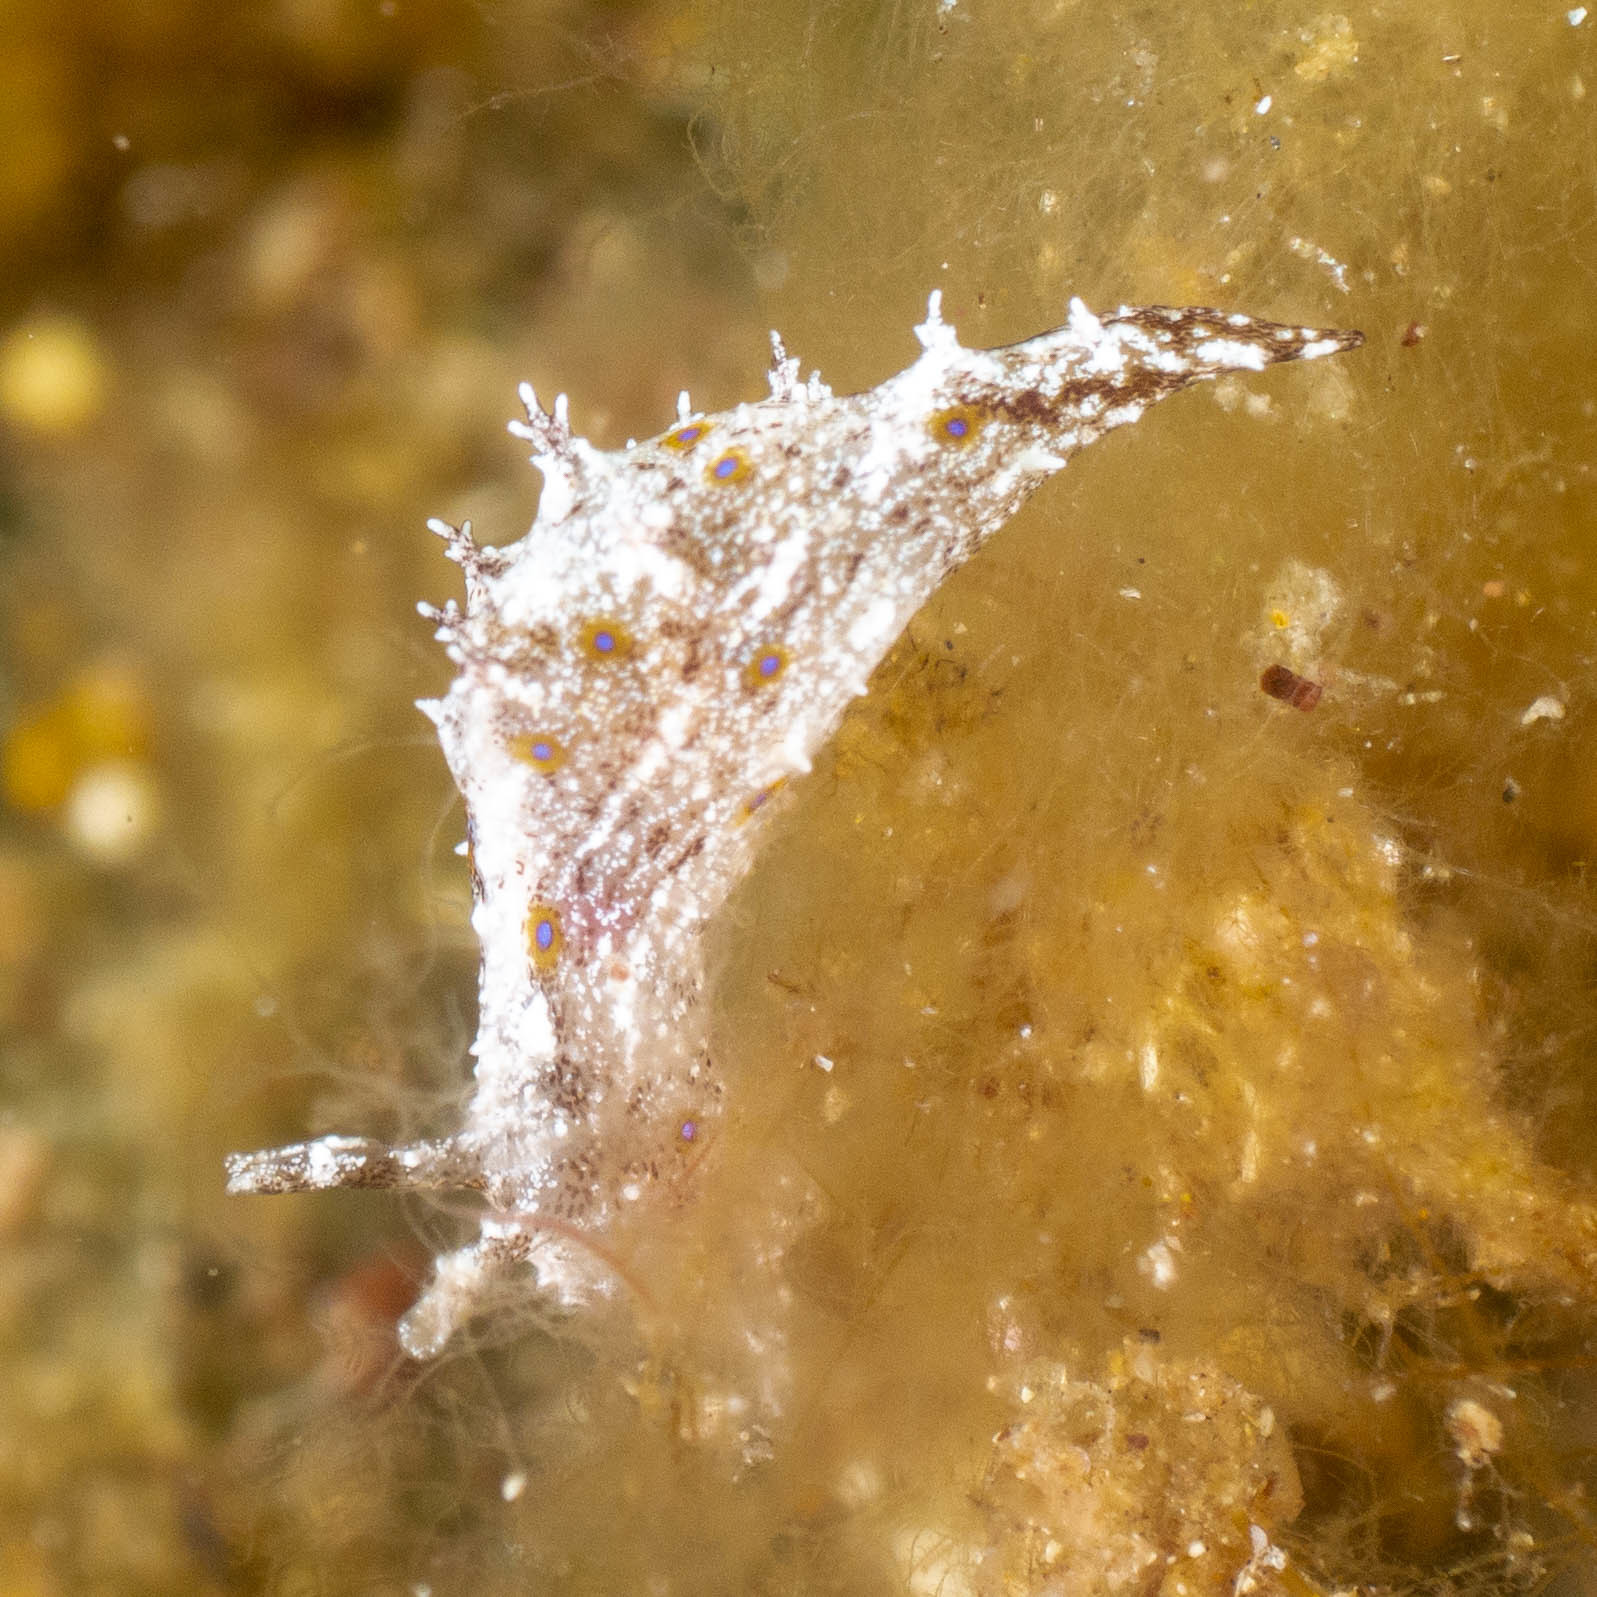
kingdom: Animalia
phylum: Mollusca
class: Gastropoda
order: Aplysiida
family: Aplysiidae
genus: Bursatella
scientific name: Bursatella hirsuta
